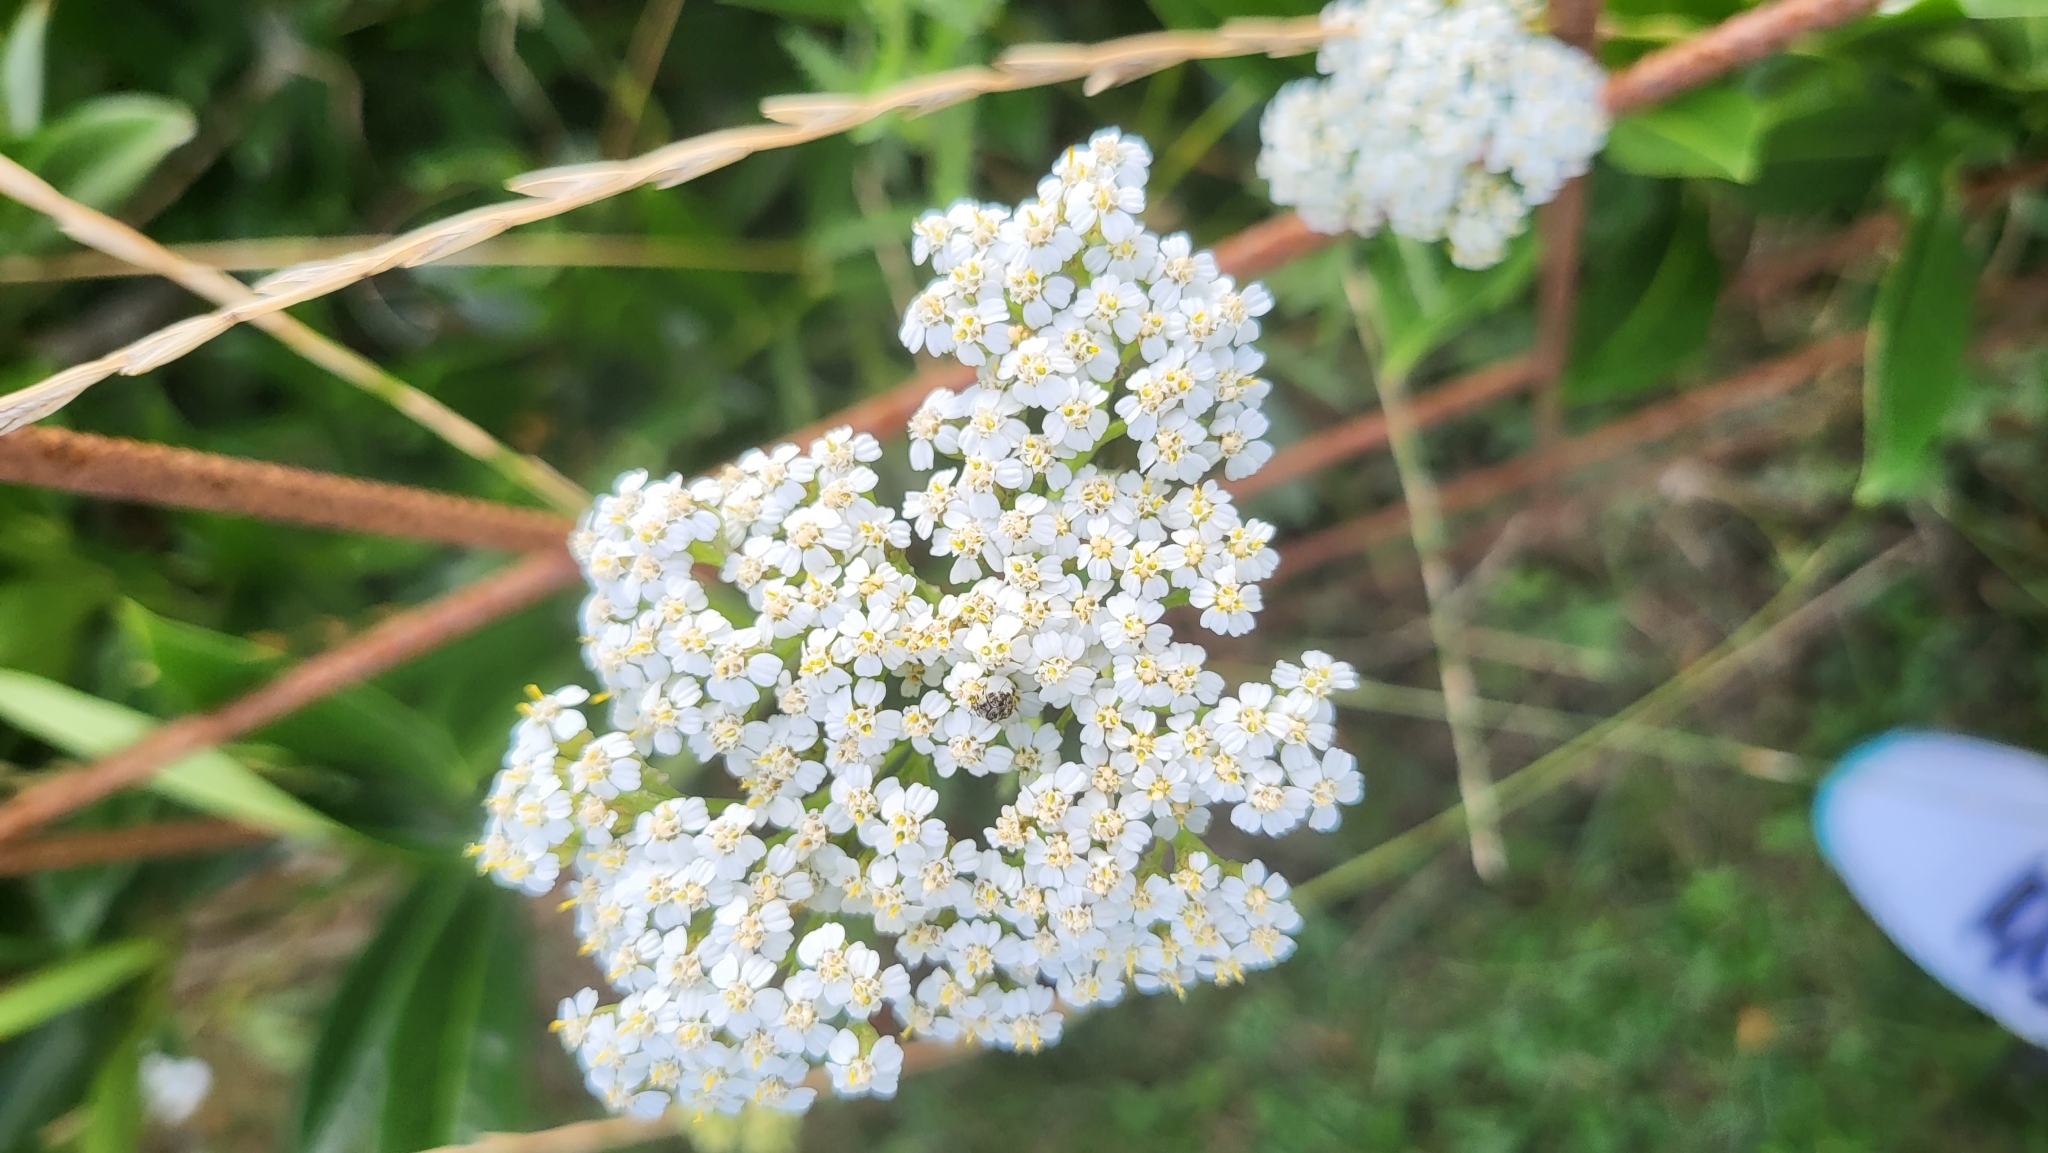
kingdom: Plantae
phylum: Tracheophyta
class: Magnoliopsida
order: Asterales
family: Asteraceae
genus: Achillea
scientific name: Achillea millefolium
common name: Yarrow
